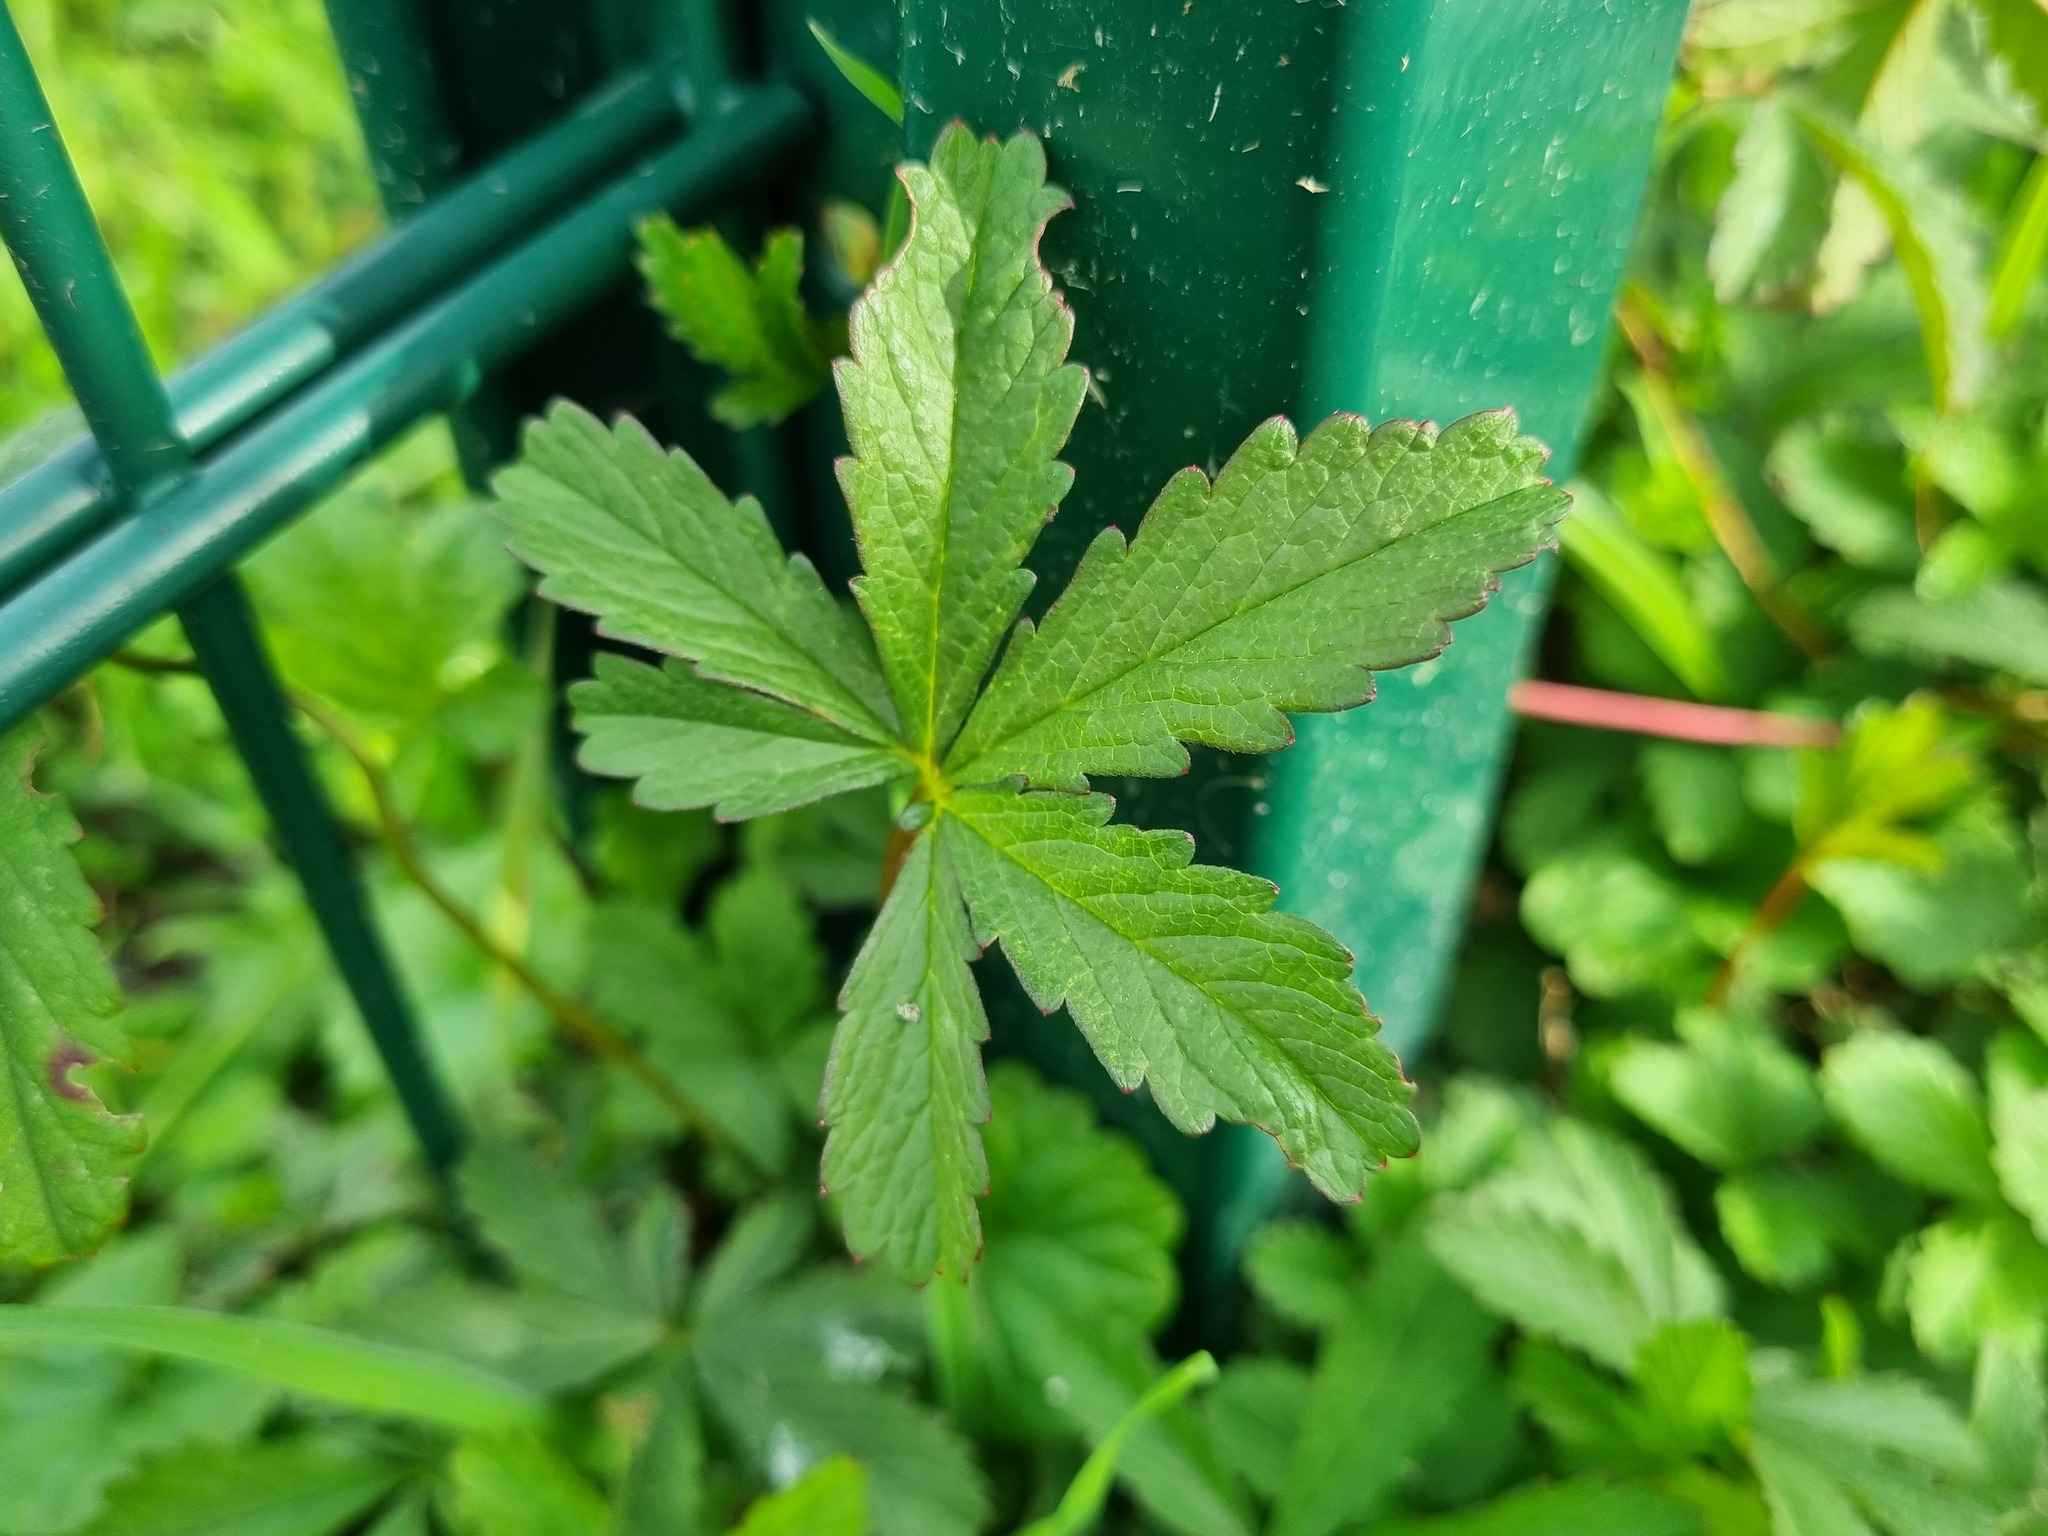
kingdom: Plantae
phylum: Tracheophyta
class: Magnoliopsida
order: Rosales
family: Rosaceae
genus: Potentilla
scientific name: Potentilla reptans
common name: Creeping cinquefoil
